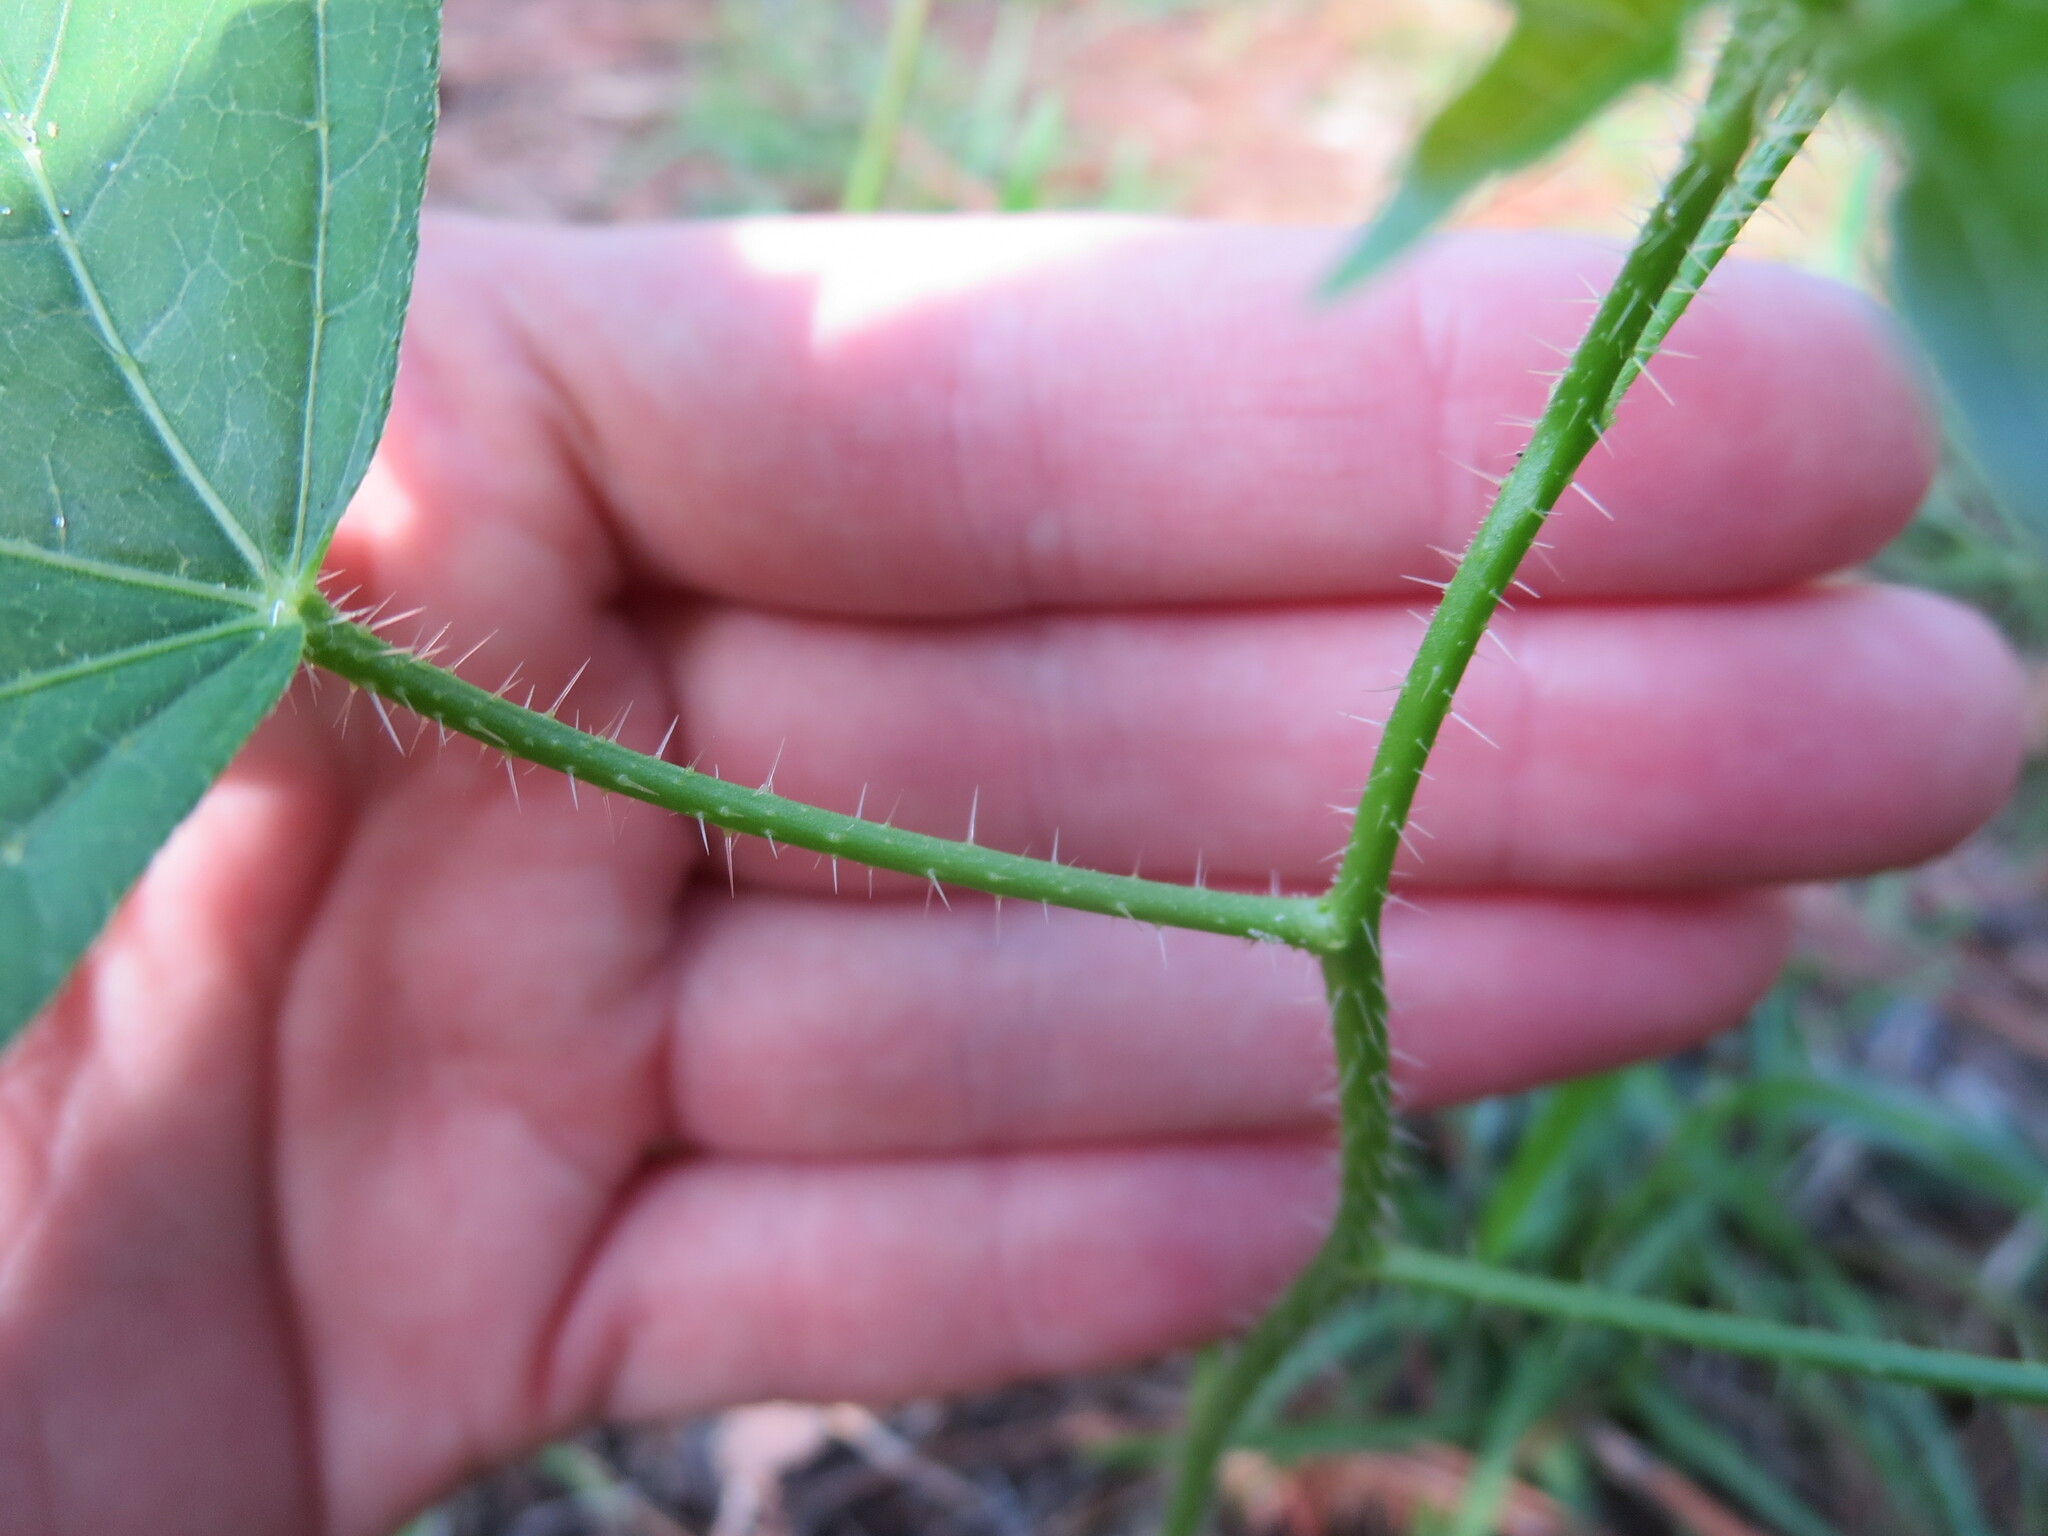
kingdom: Plantae
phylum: Tracheophyta
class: Magnoliopsida
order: Malpighiales
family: Euphorbiaceae
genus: Cnidoscolus
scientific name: Cnidoscolus stimulosus
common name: Bull-nettle
